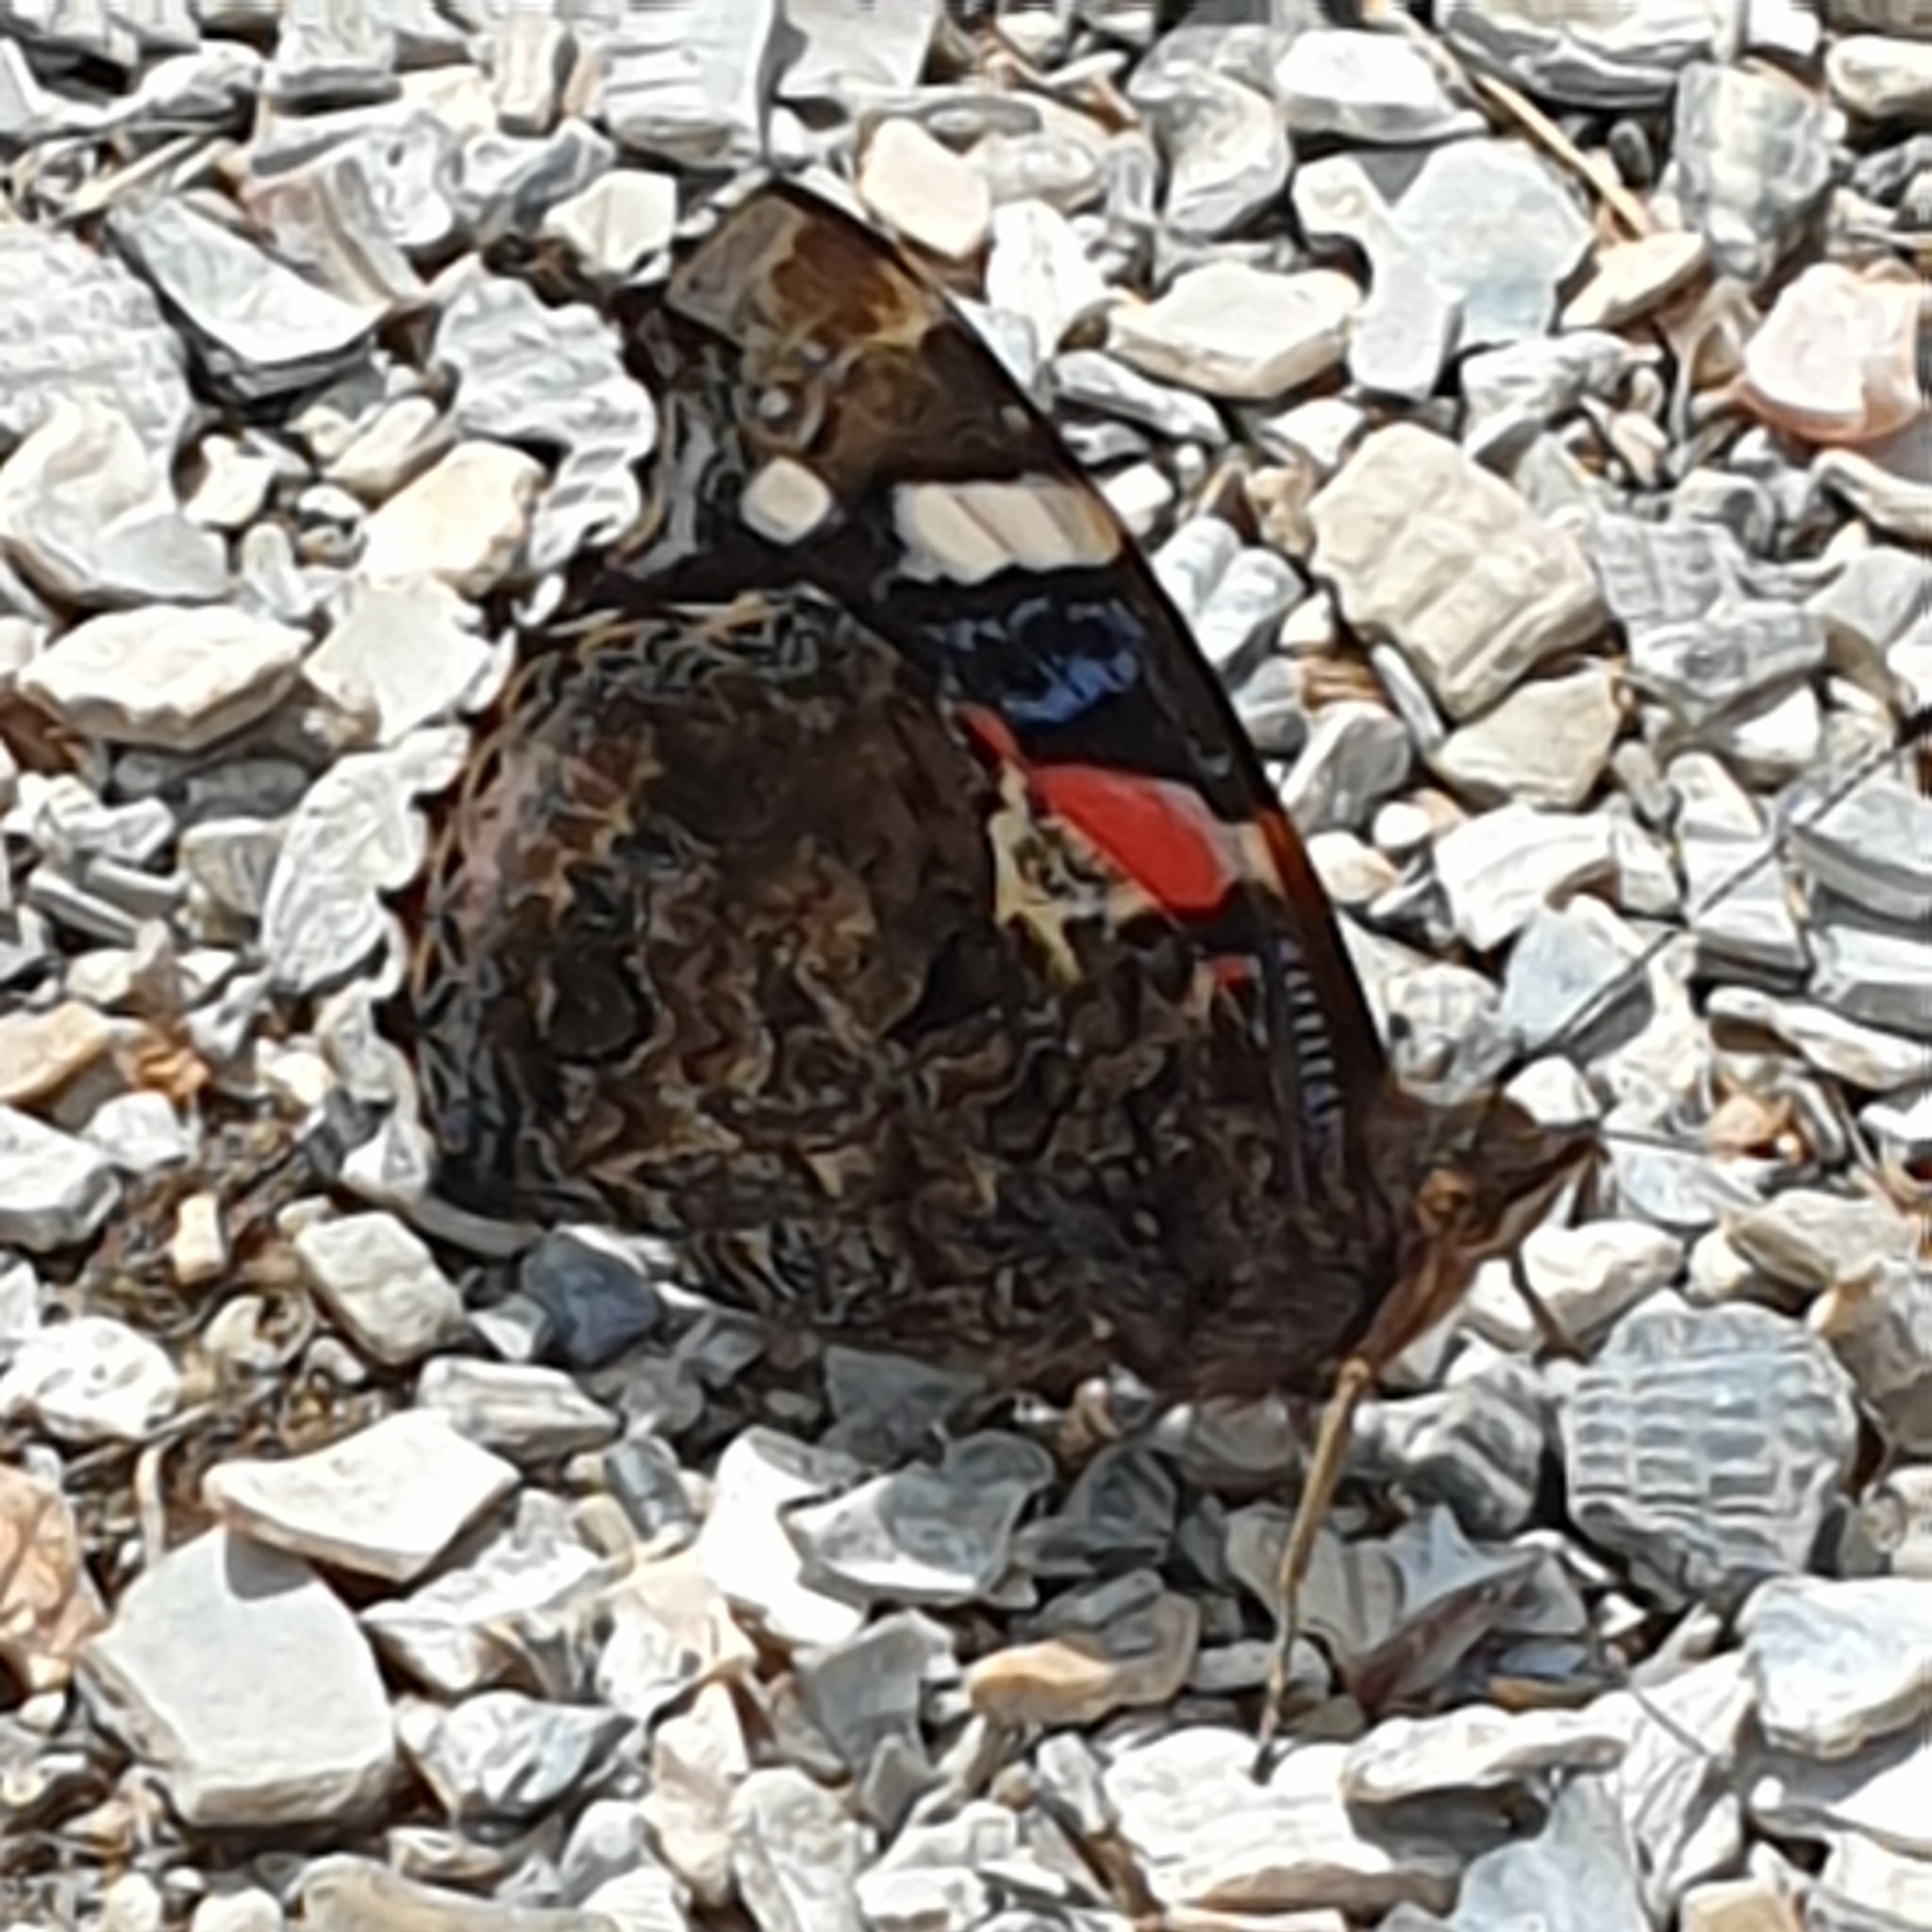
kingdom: Animalia
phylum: Arthropoda
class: Insecta
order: Lepidoptera
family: Nymphalidae
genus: Vanessa
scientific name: Vanessa atalanta
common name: Red admiral
